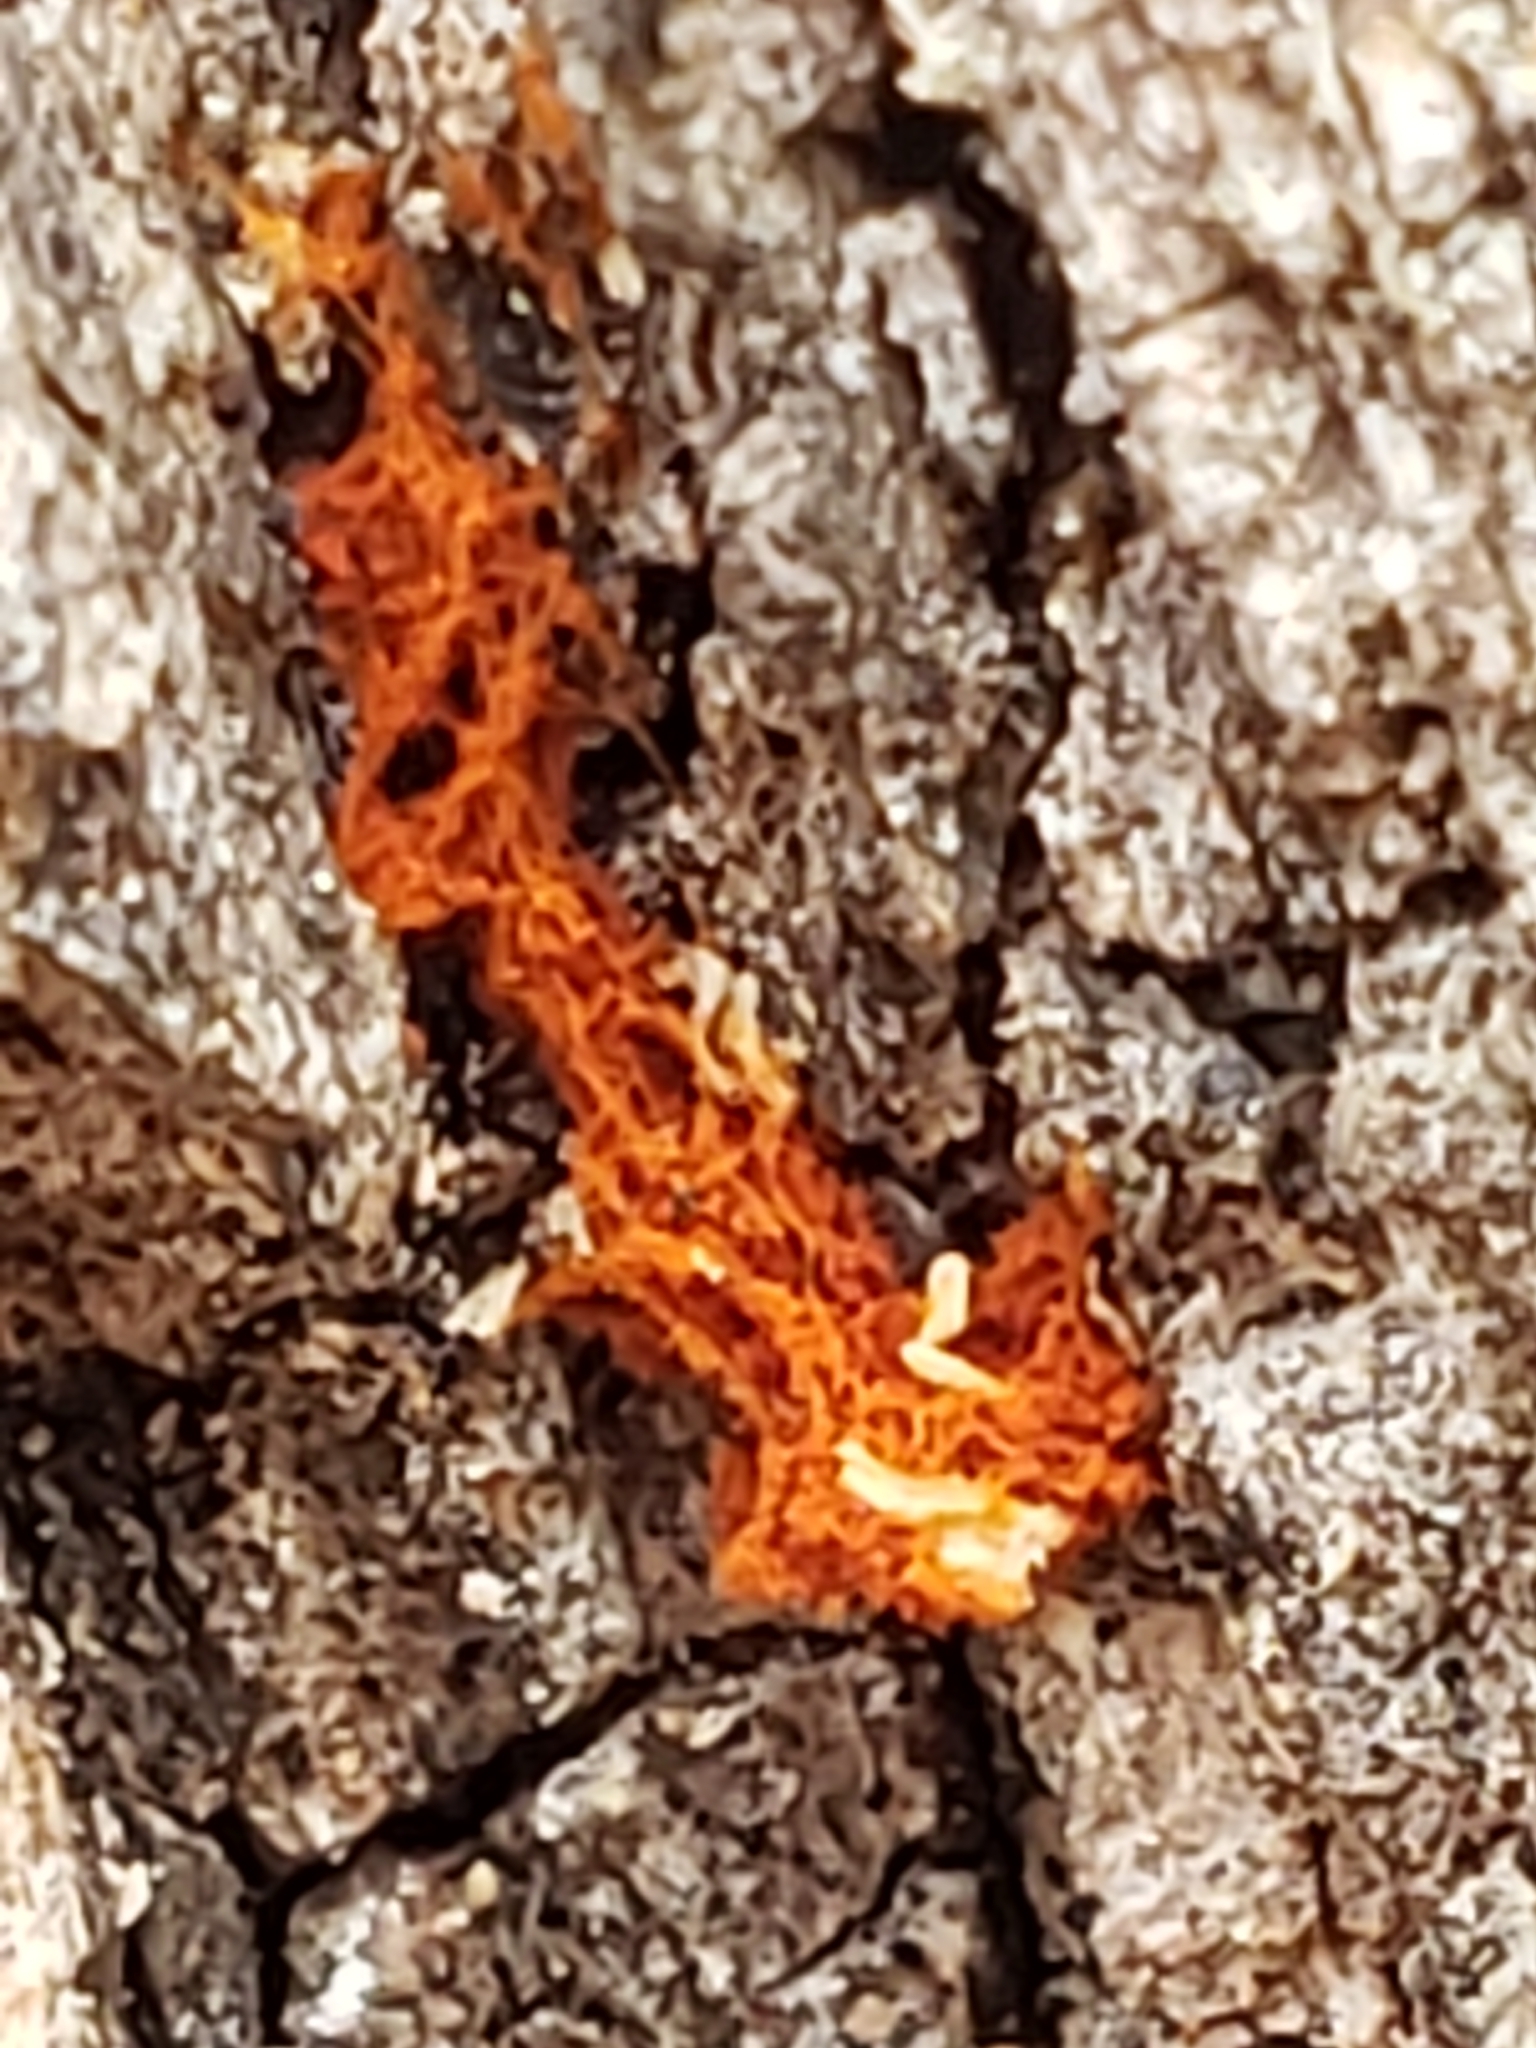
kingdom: Protozoa
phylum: Mycetozoa
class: Myxomycetes
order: Trichiales
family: Trichiaceae
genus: Metatrichia
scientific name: Metatrichia vesparia
